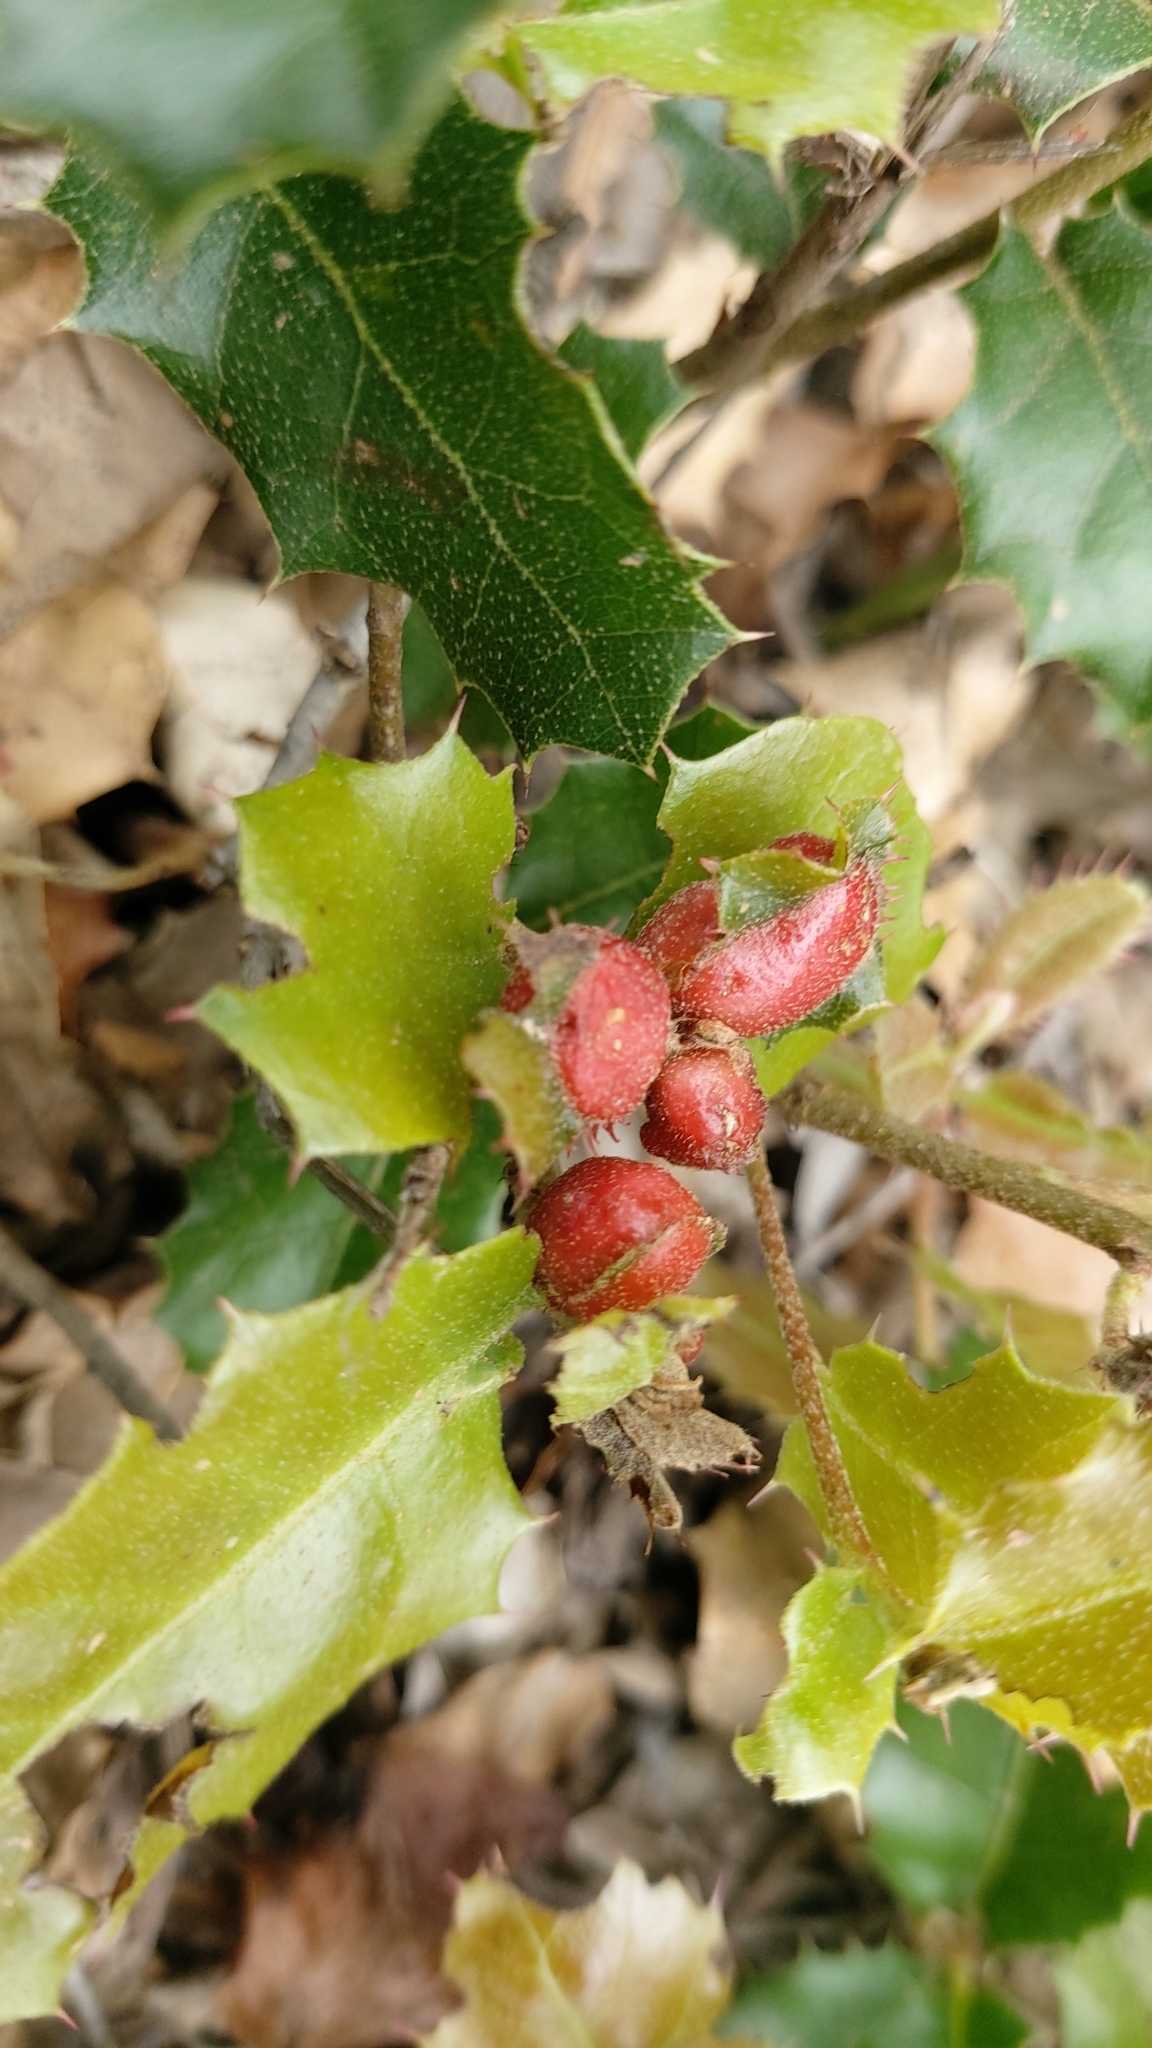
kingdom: Animalia
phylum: Arthropoda
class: Insecta
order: Hymenoptera
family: Cynipidae
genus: Plagiotrochus
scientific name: Plagiotrochus quercusilicis
